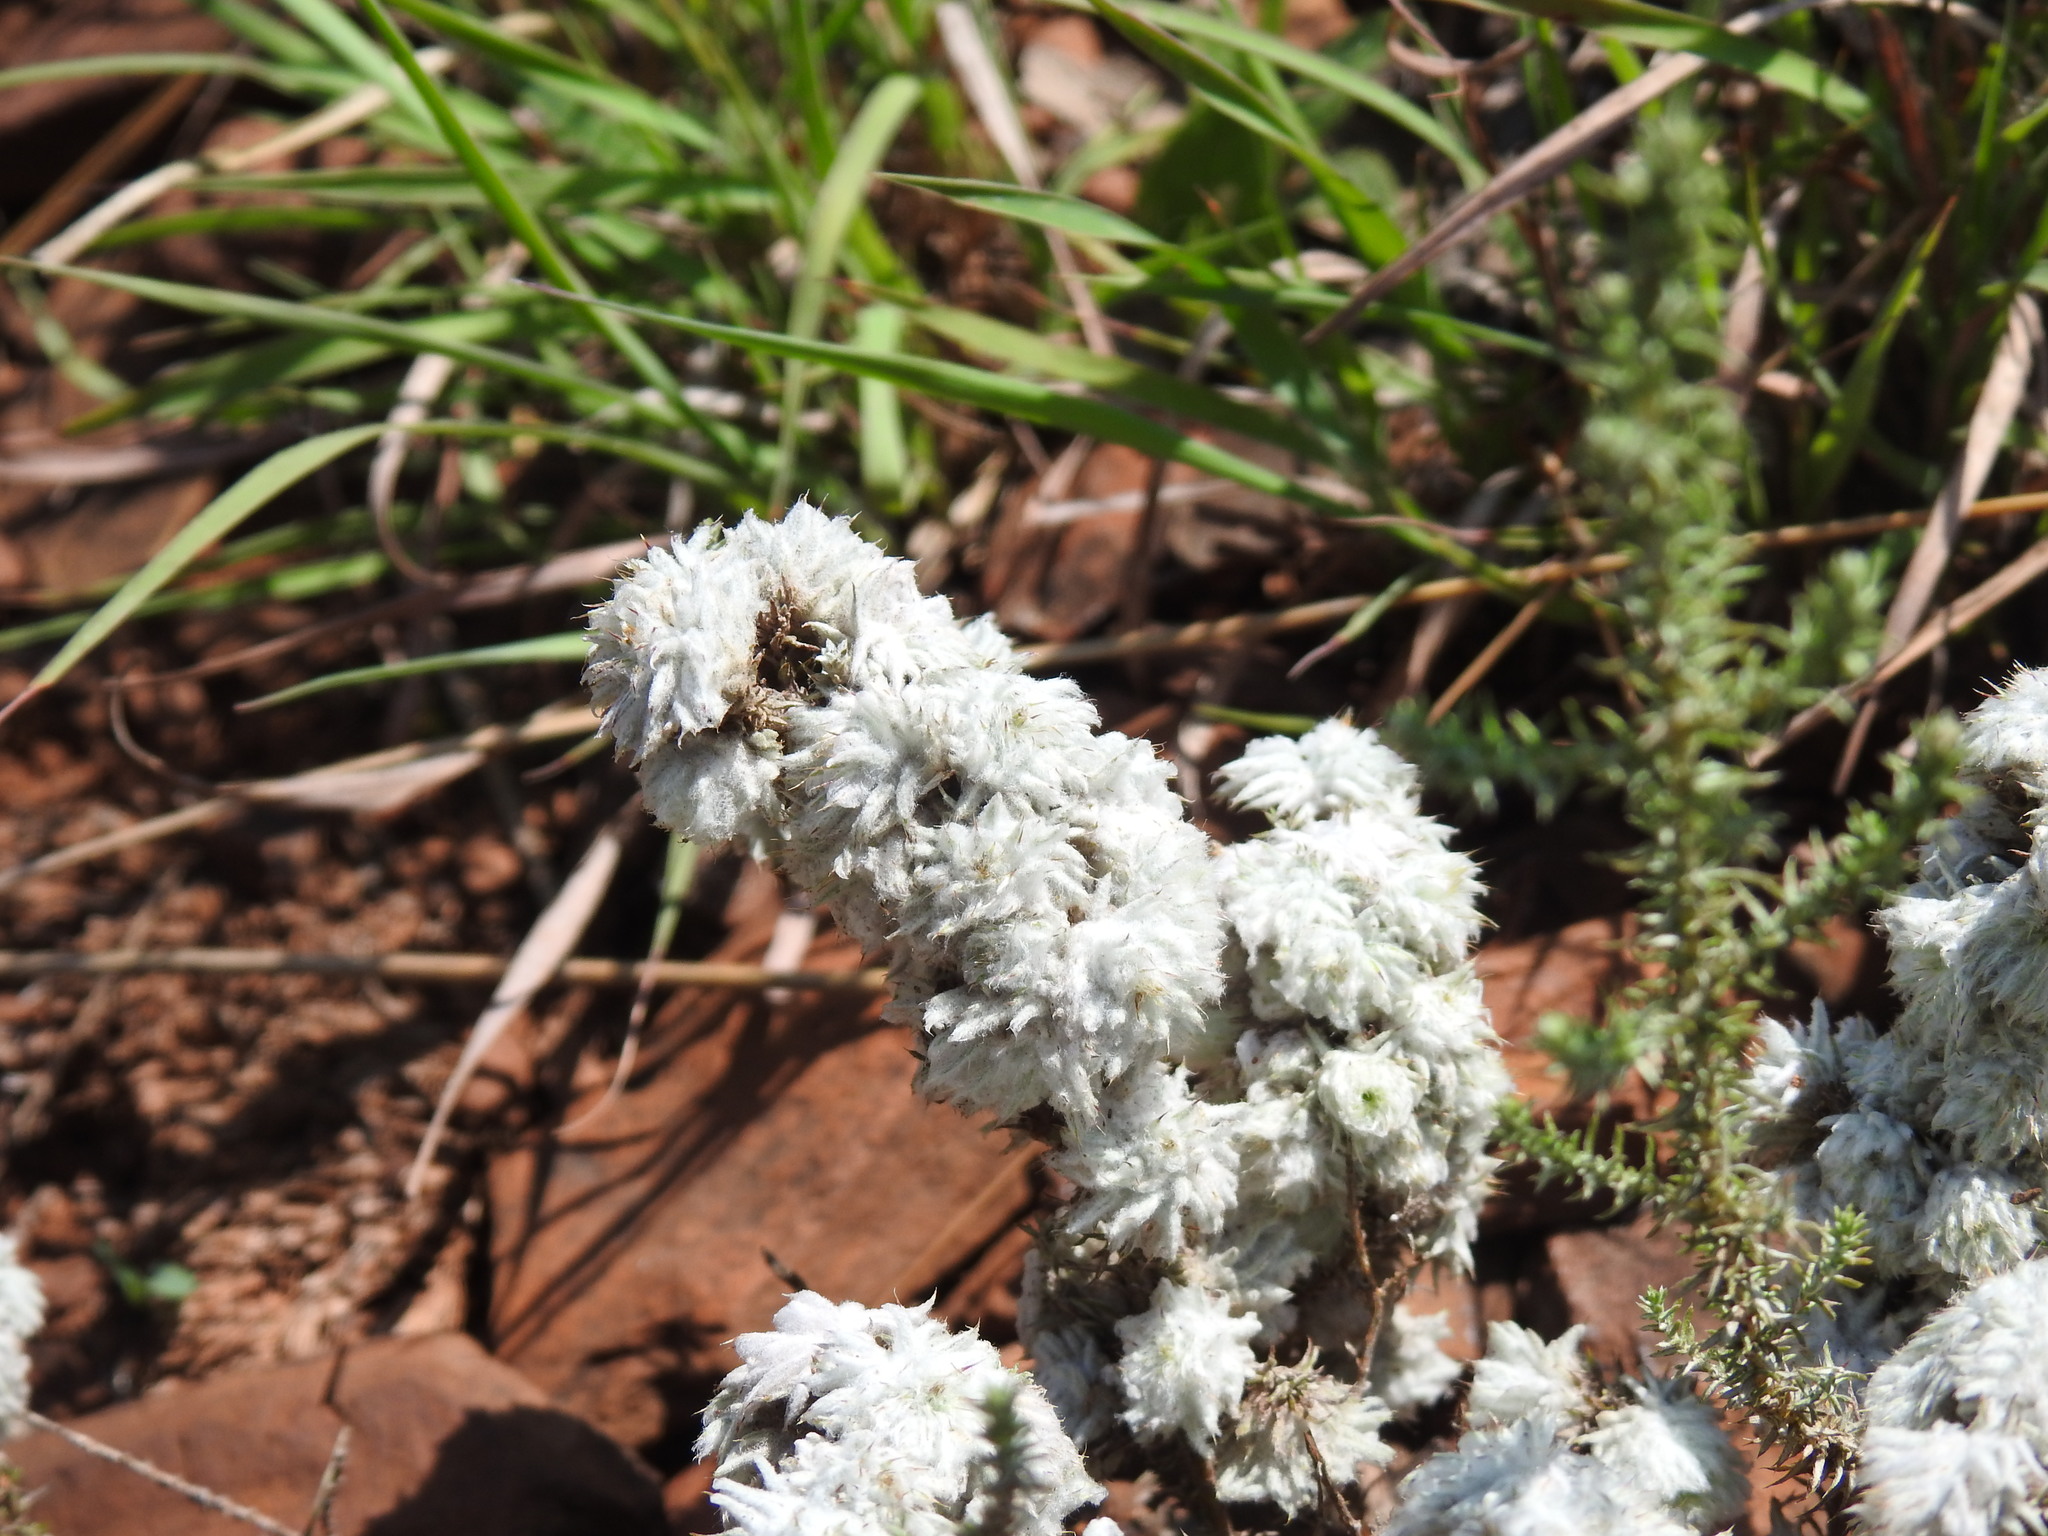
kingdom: Plantae
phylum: Tracheophyta
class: Magnoliopsida
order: Asterales
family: Asteraceae
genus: Seriphium
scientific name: Seriphium plumosum
